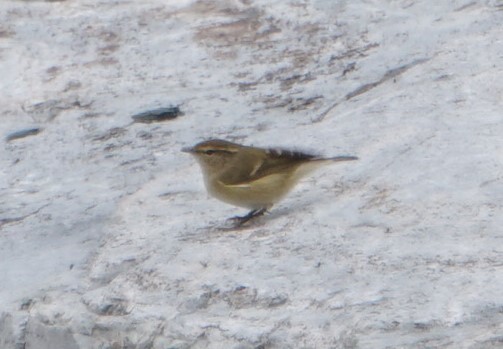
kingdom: Animalia
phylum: Chordata
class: Aves
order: Passeriformes
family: Phylloscopidae
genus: Phylloscopus
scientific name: Phylloscopus humei
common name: Hume's leaf warbler
